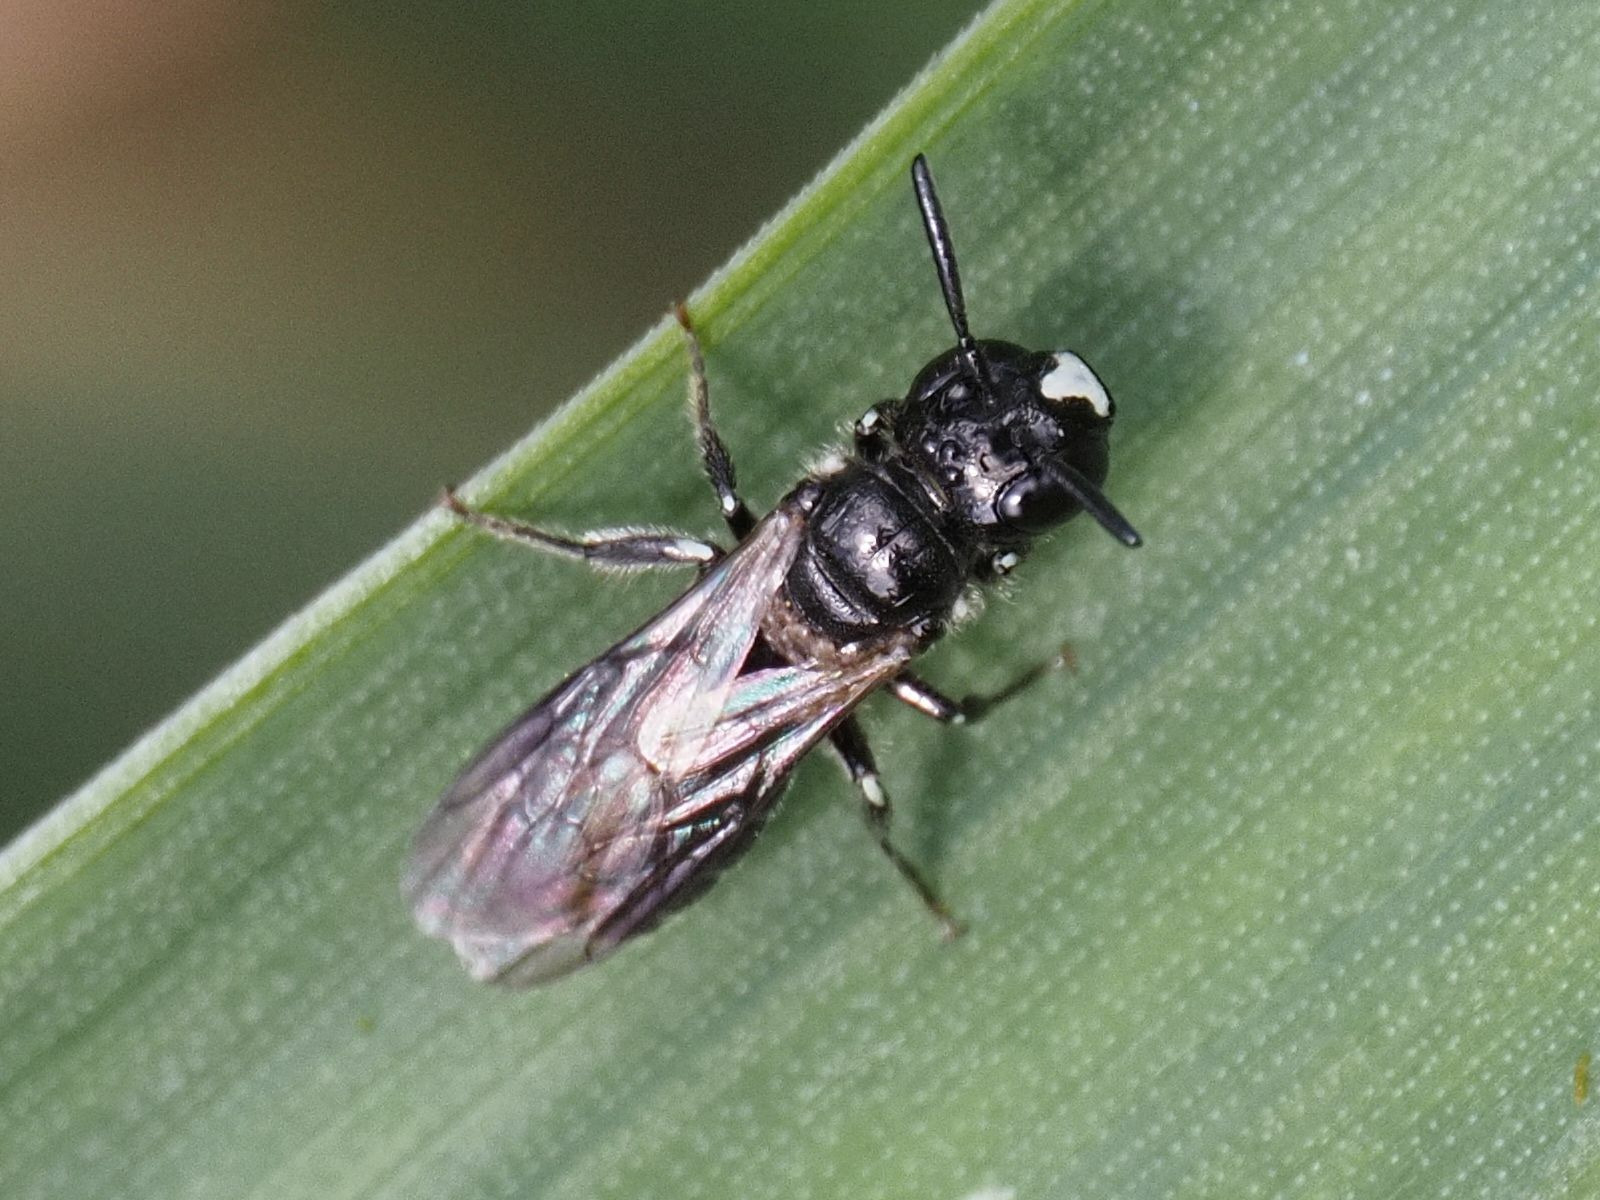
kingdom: Animalia
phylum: Arthropoda
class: Insecta
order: Hymenoptera
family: Apidae
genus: Ceratina
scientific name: Ceratina cucurbitina
